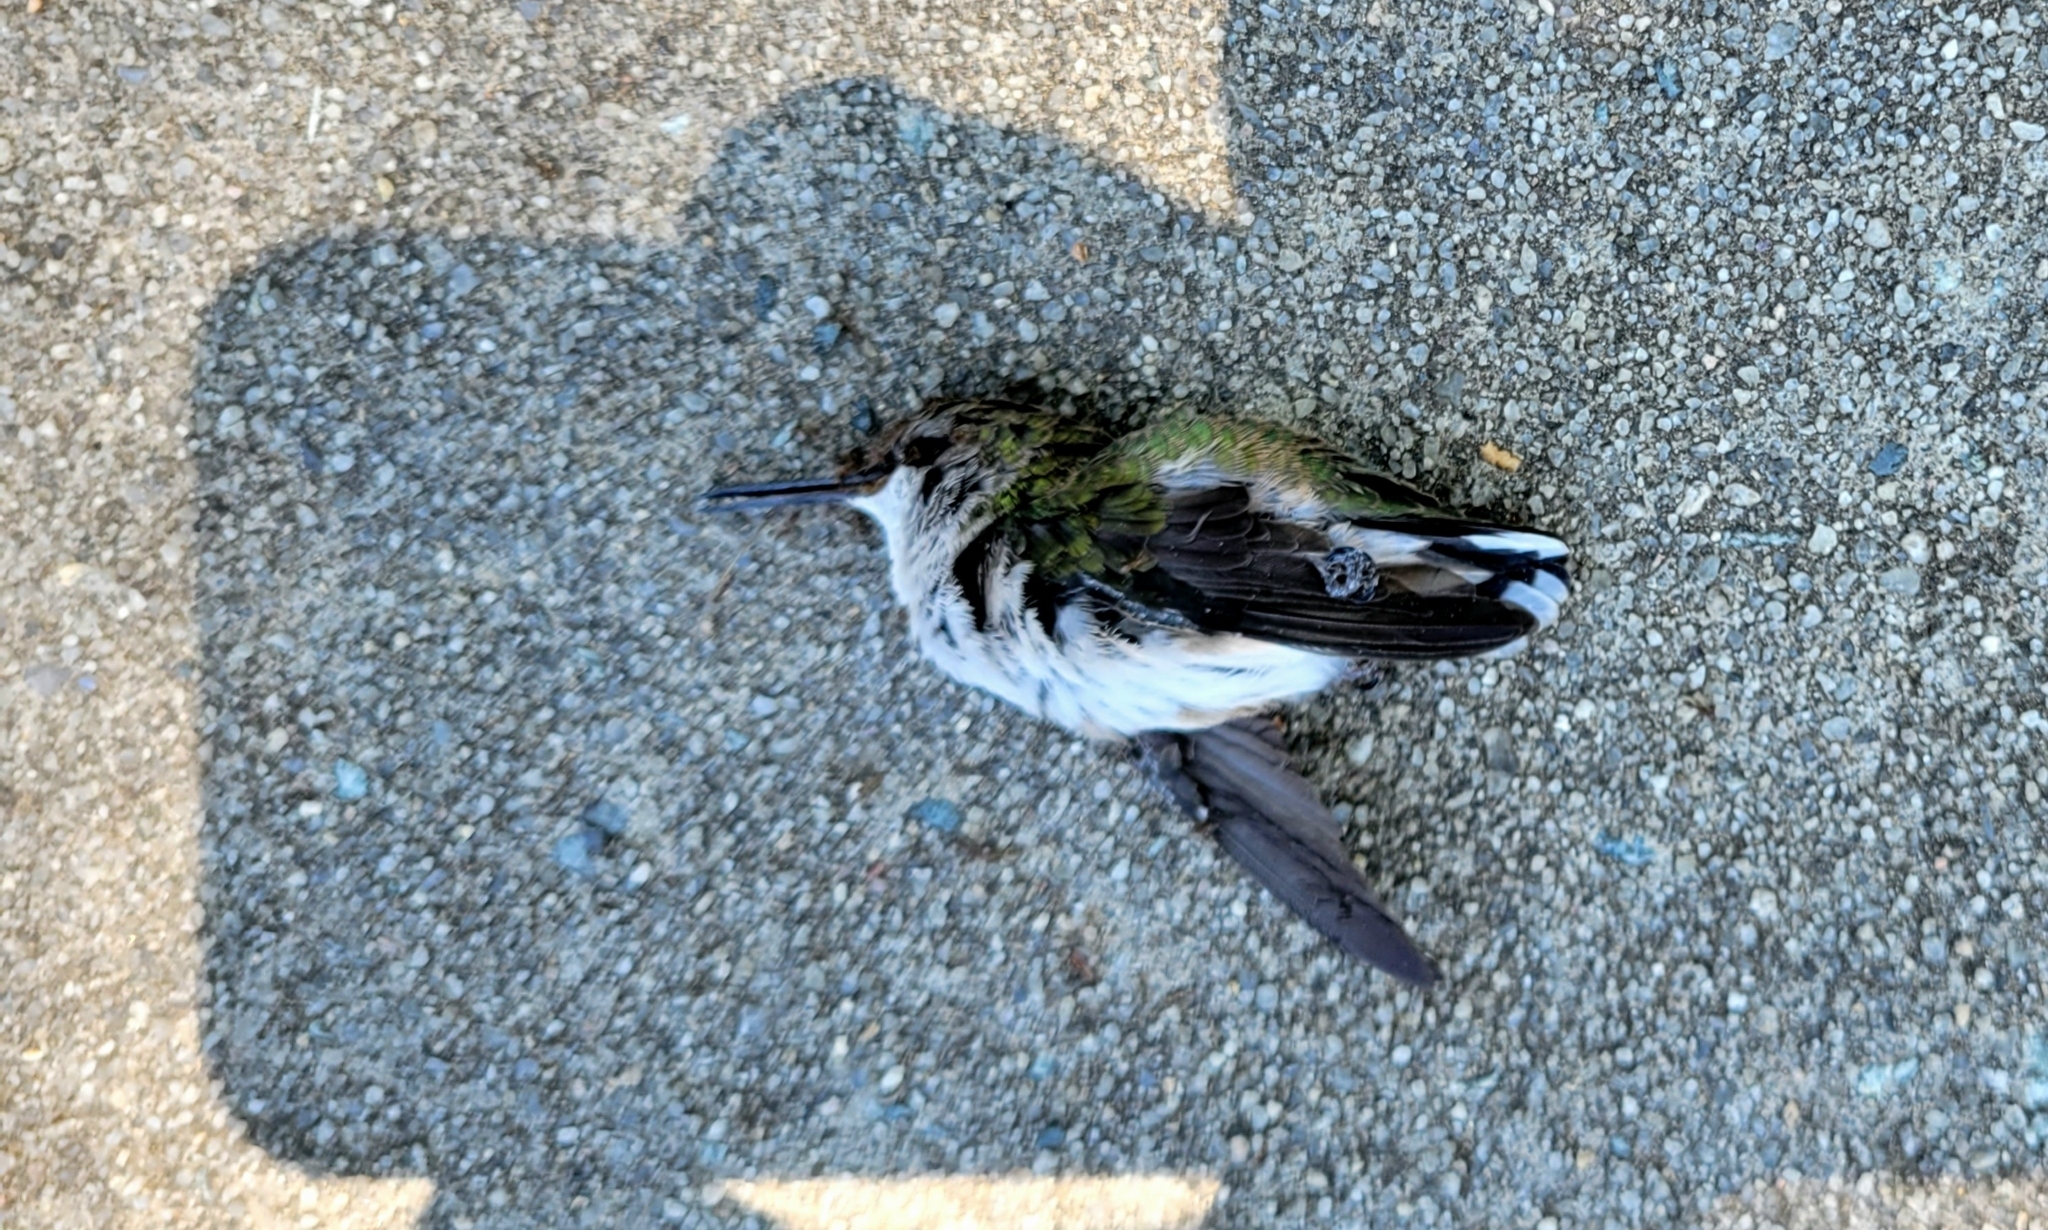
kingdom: Animalia
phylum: Chordata
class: Aves
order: Apodiformes
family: Trochilidae
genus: Archilochus
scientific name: Archilochus colubris
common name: Ruby-throated hummingbird
